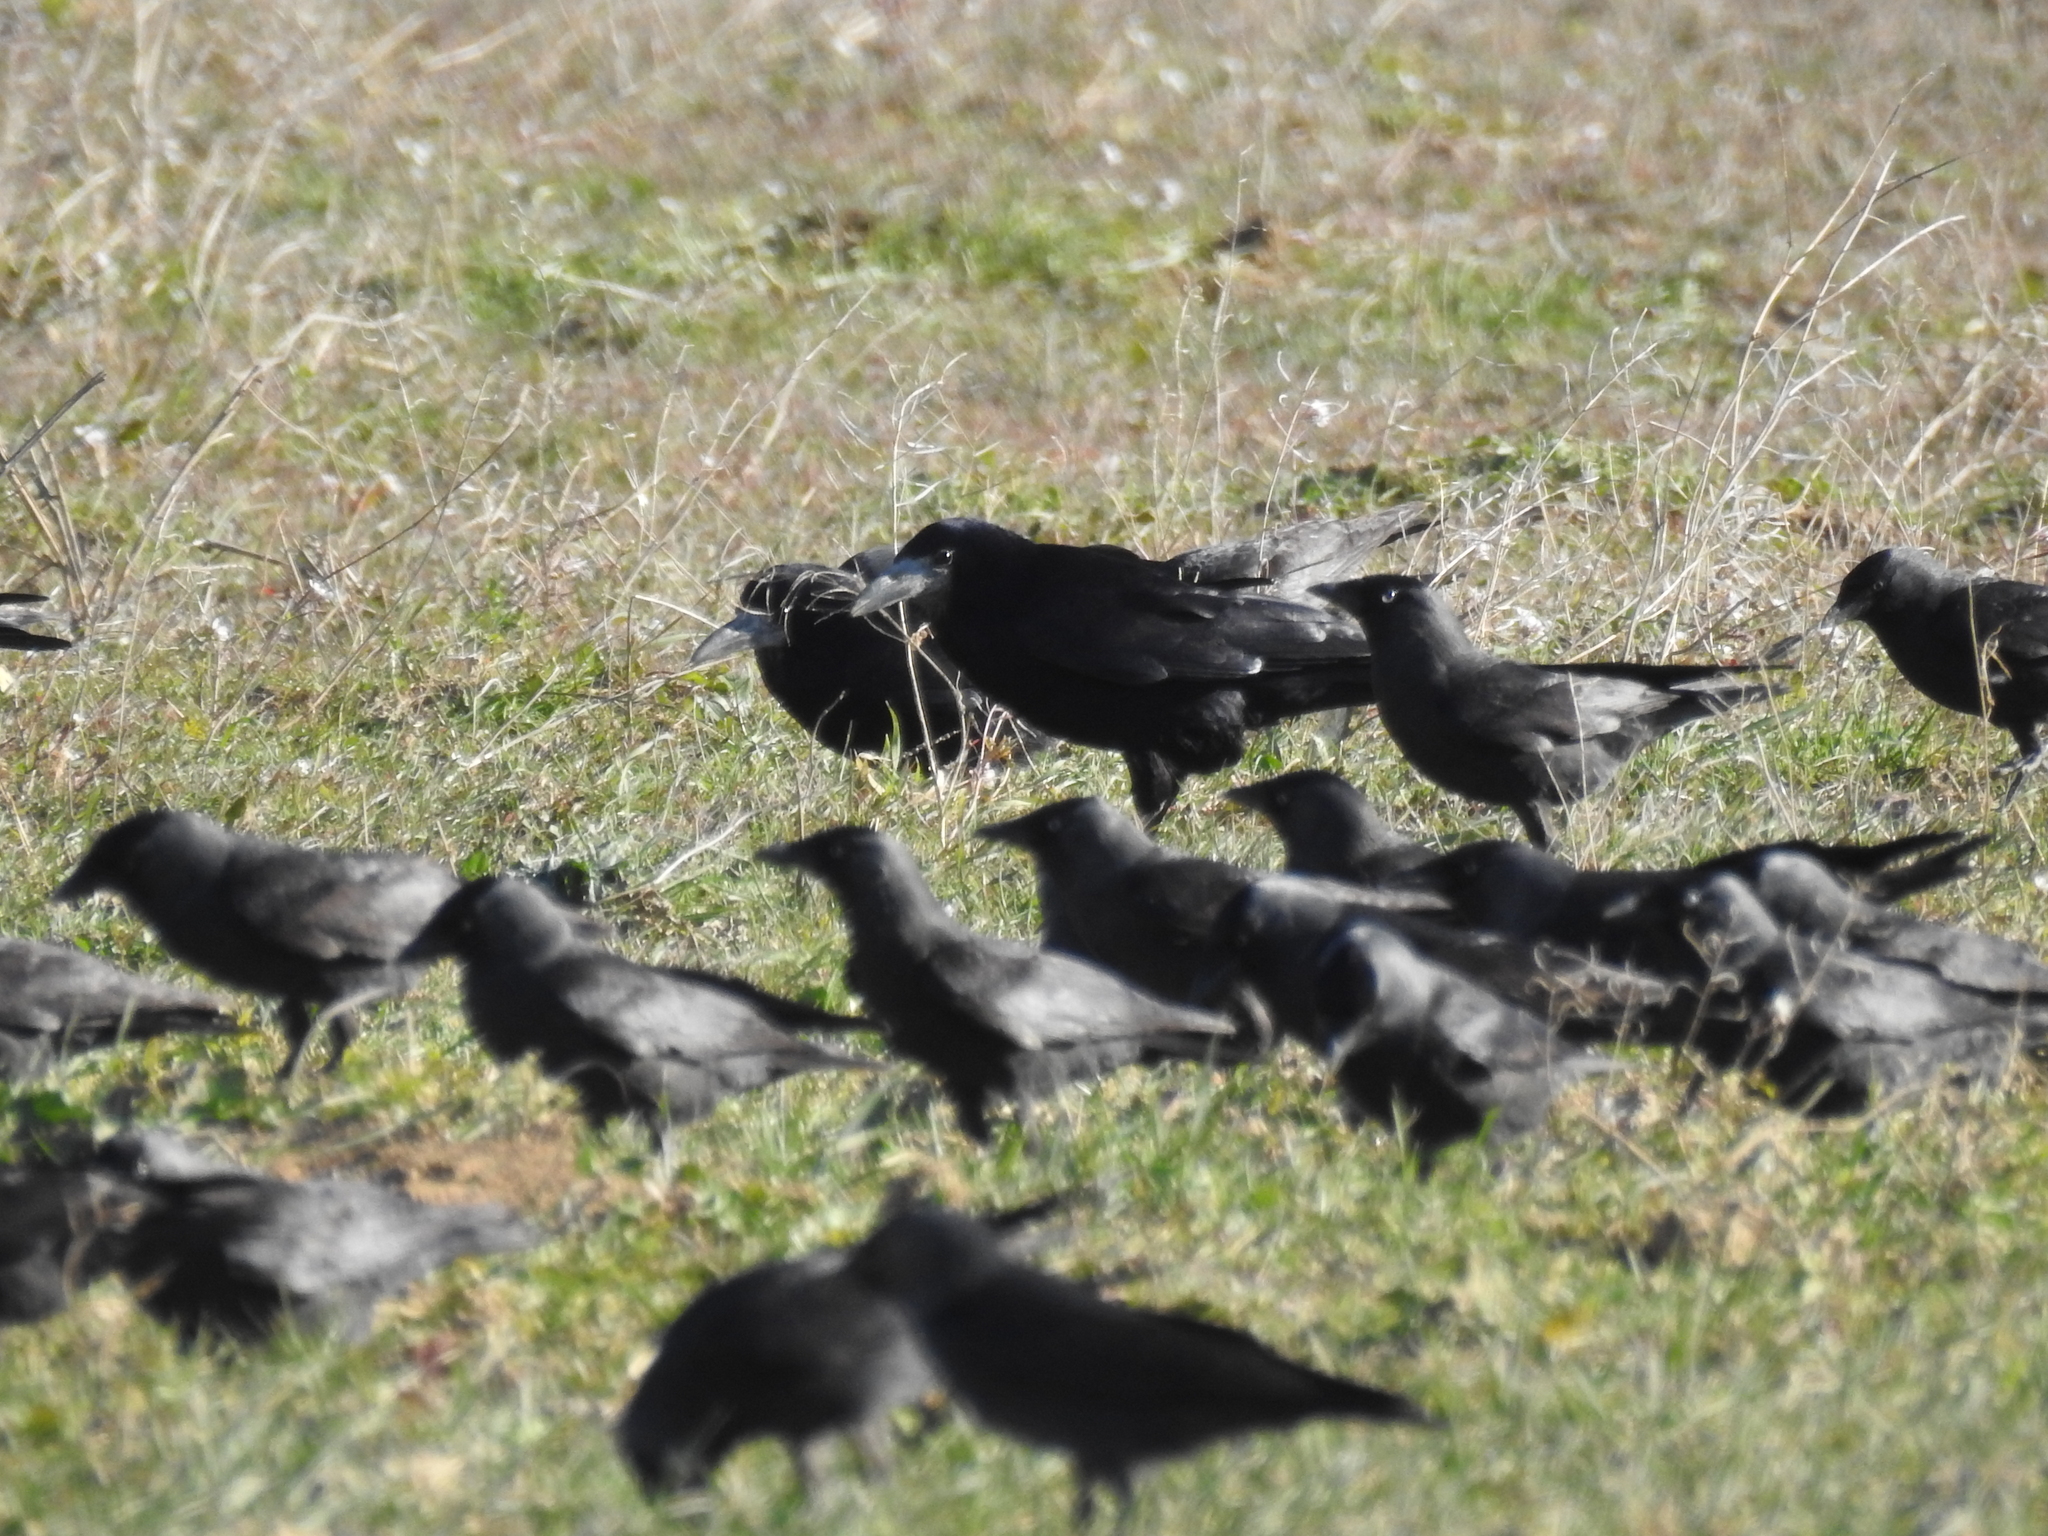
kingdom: Animalia
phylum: Chordata
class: Aves
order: Passeriformes
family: Corvidae
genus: Corvus
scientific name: Corvus frugilegus
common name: Rook
